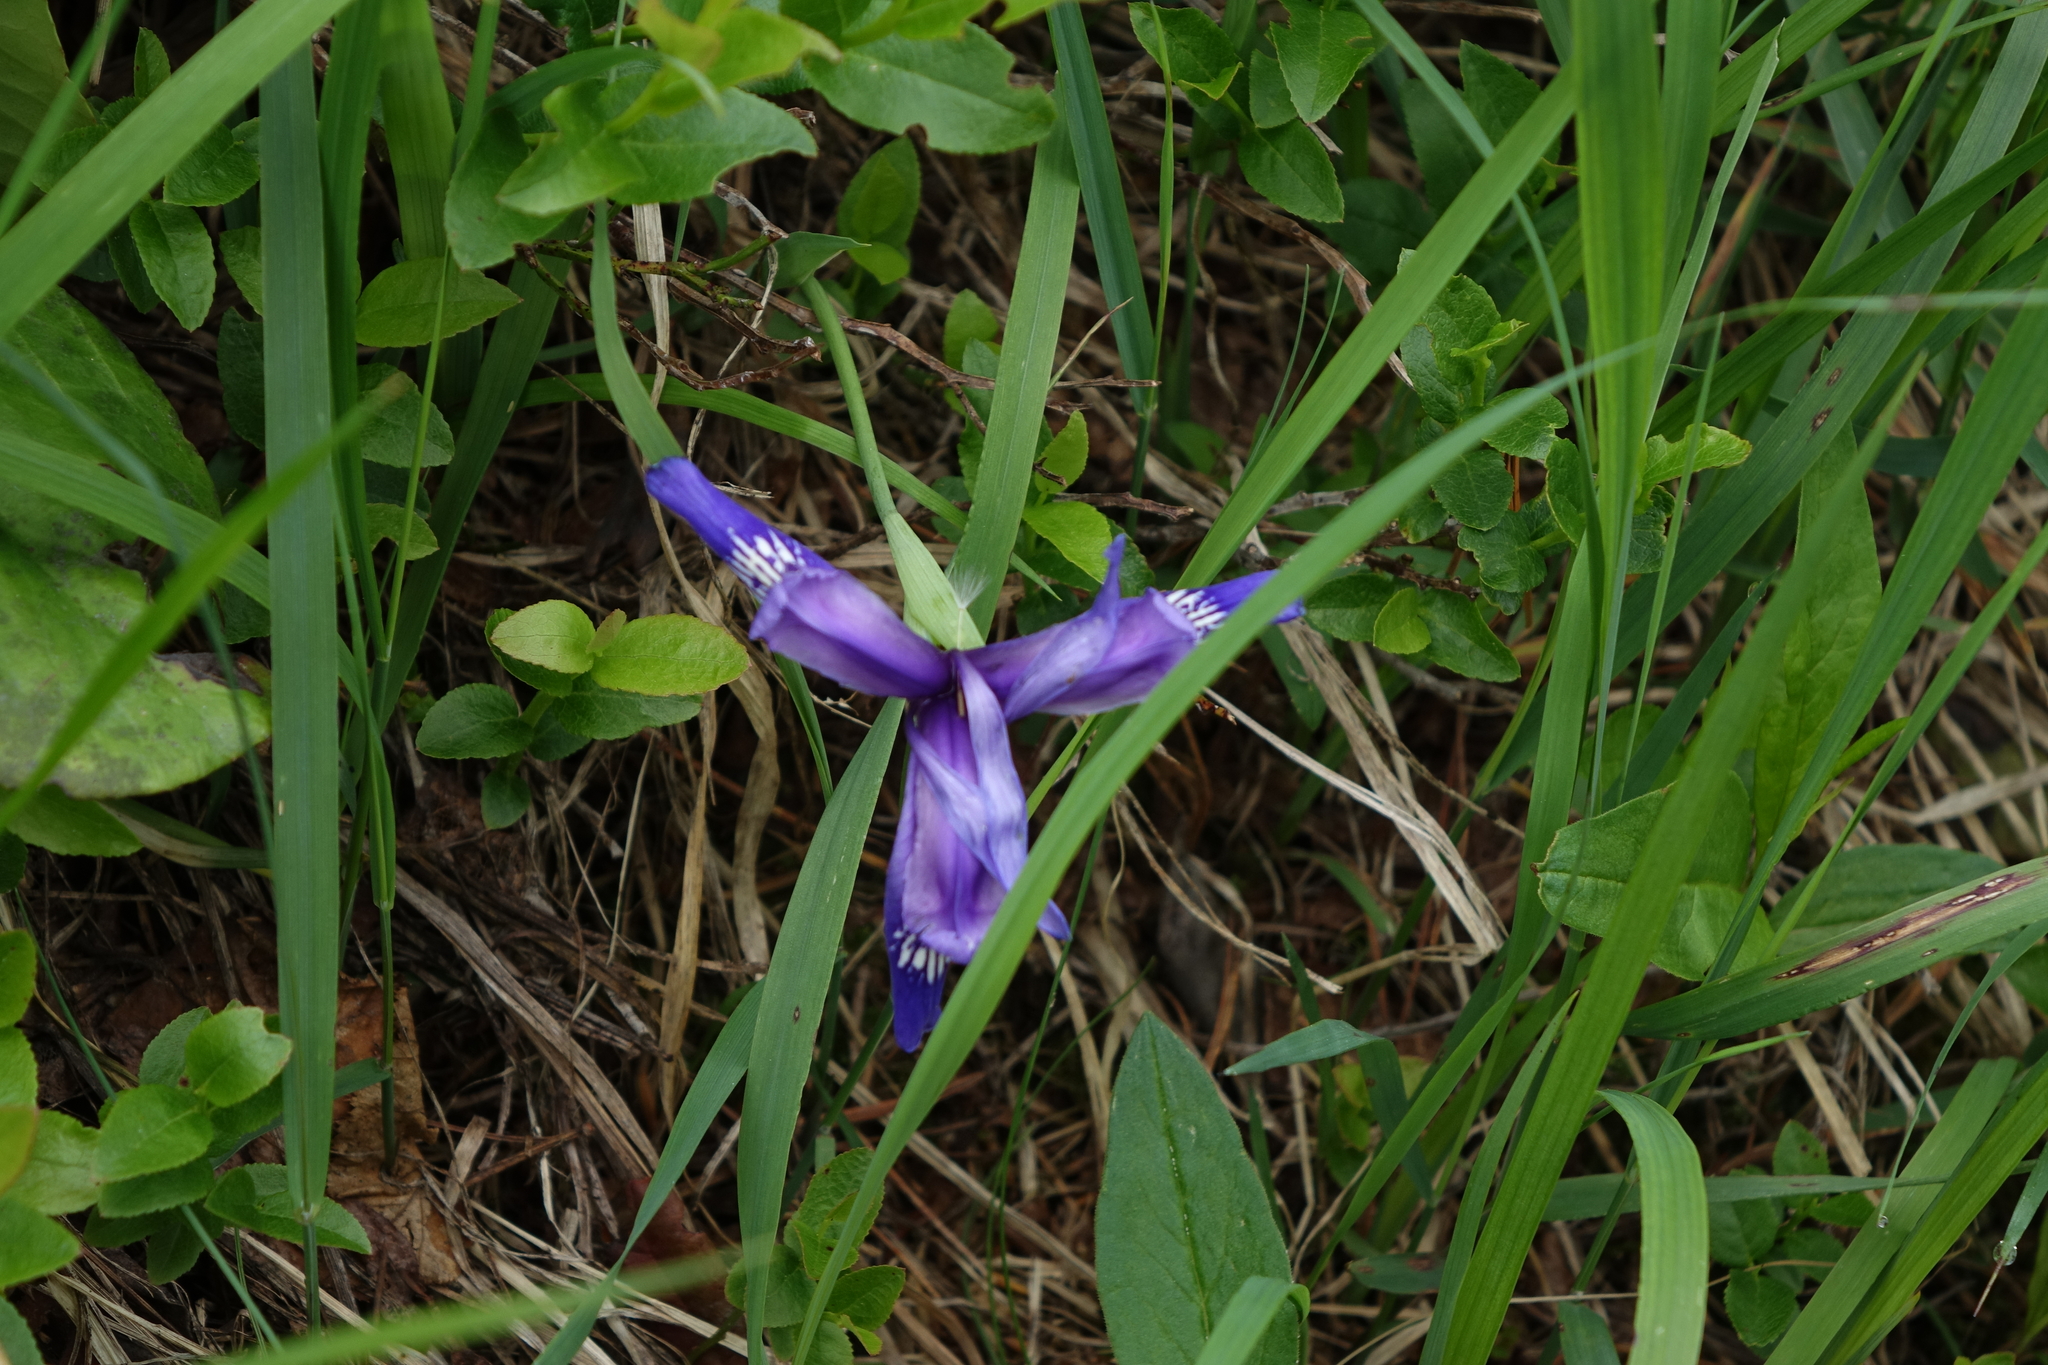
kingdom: Plantae
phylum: Tracheophyta
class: Liliopsida
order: Asparagales
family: Iridaceae
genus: Iris
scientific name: Iris ruthenica
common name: Purple-bract iris
